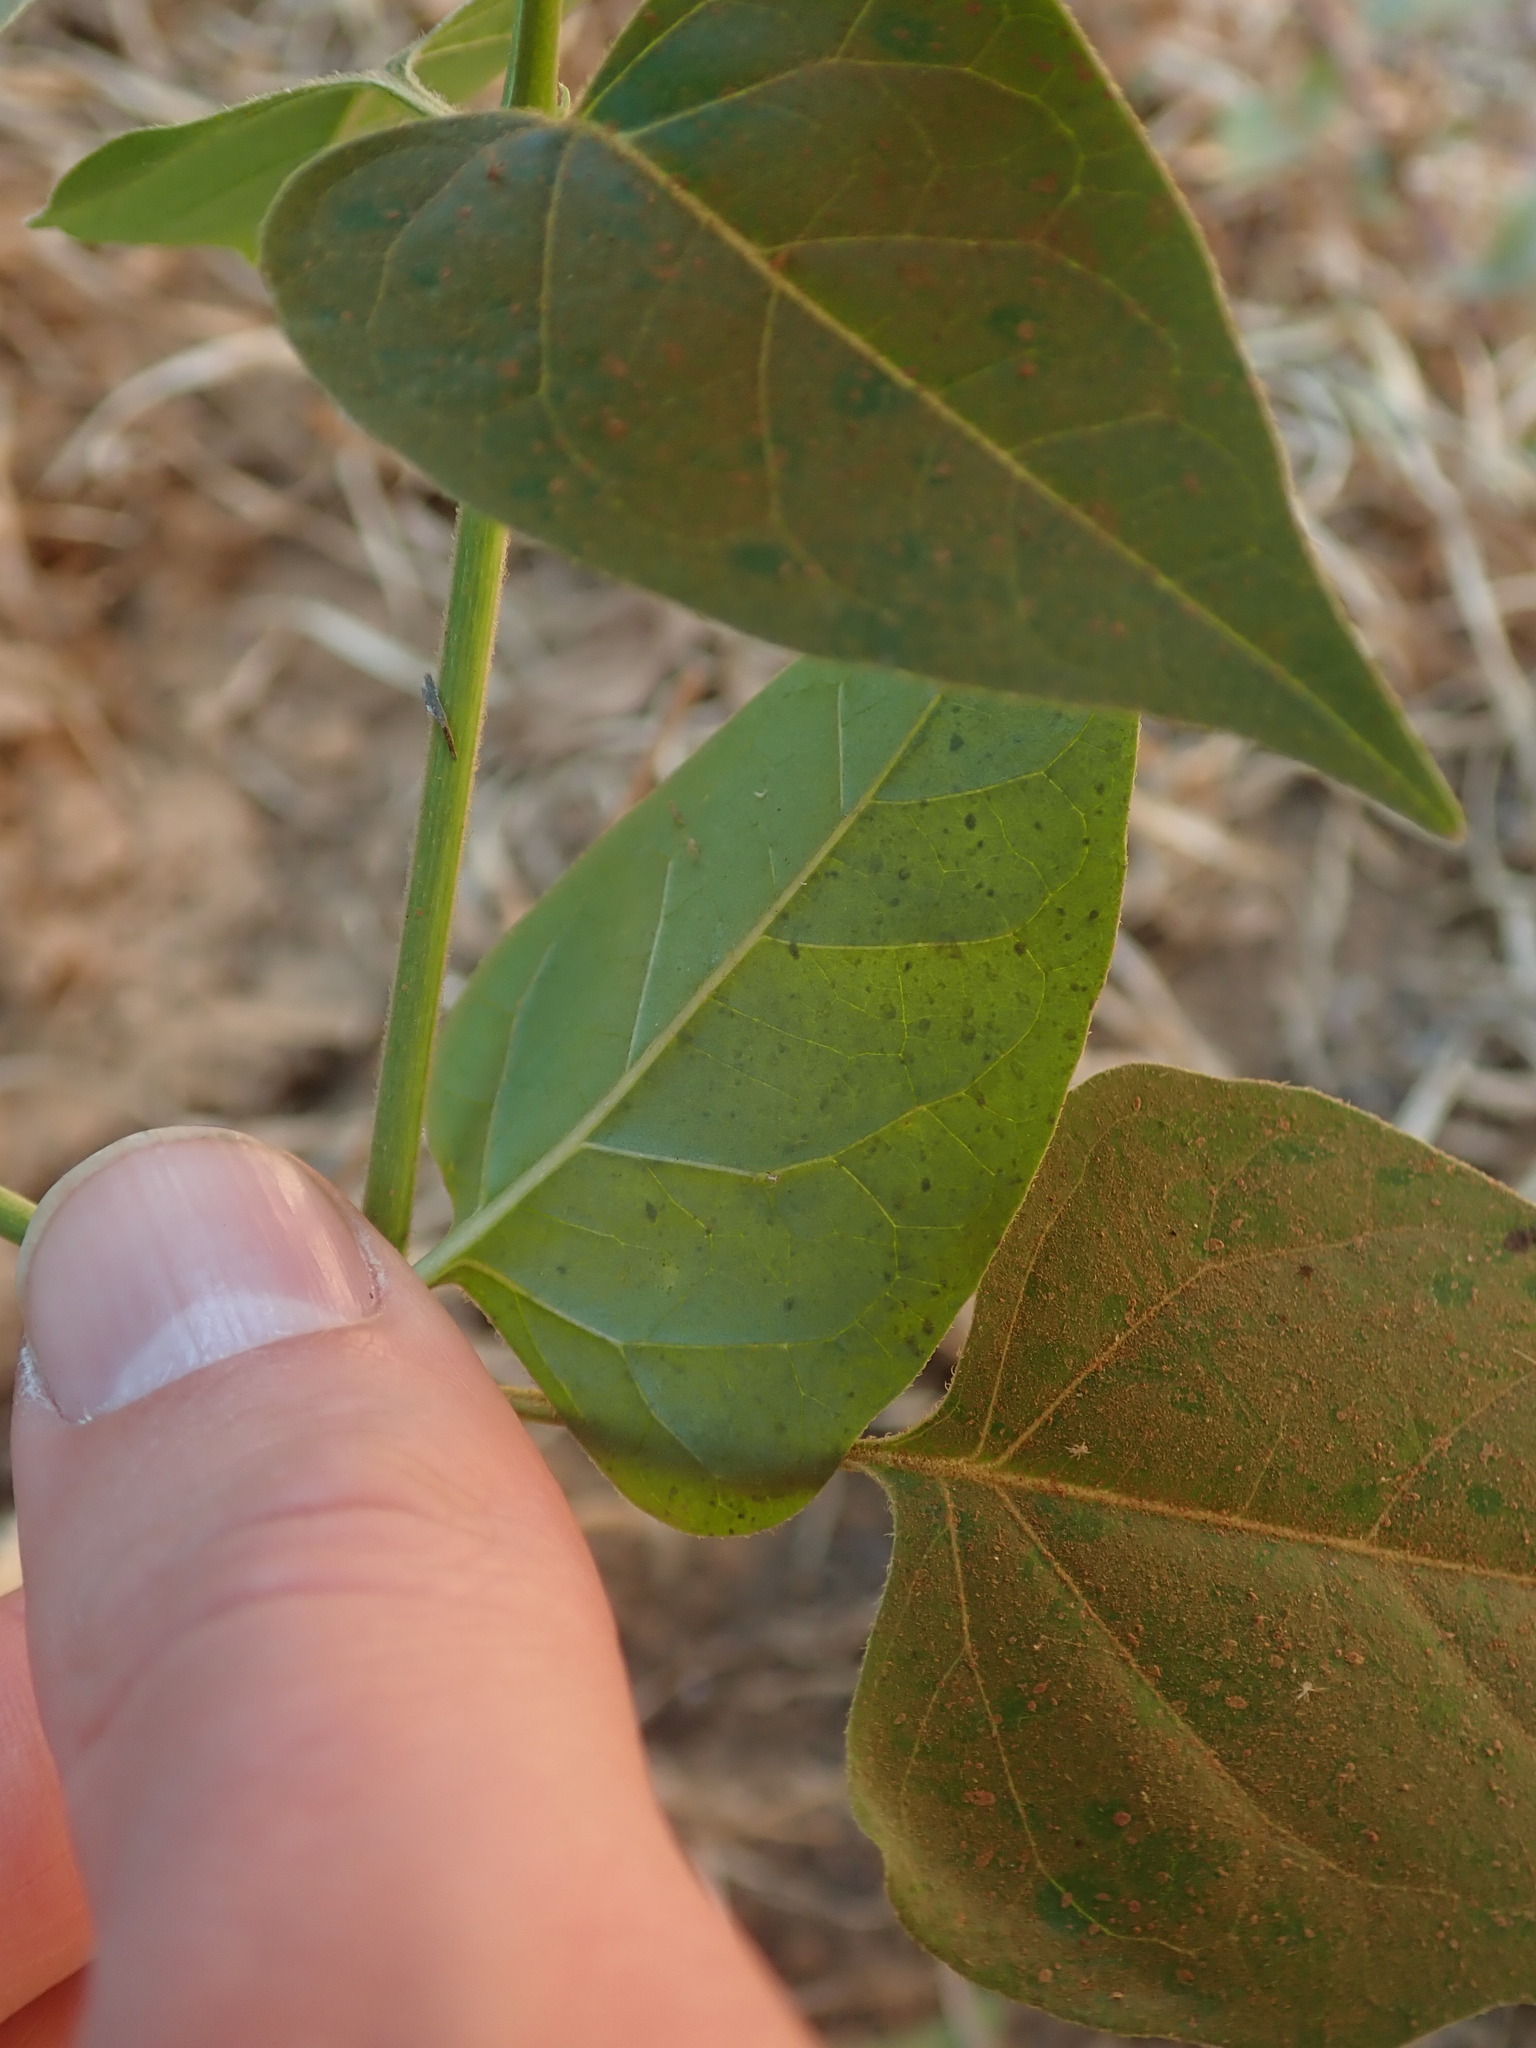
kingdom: Plantae
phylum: Tracheophyta
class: Magnoliopsida
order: Caryophyllales
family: Nyctaginaceae
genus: Mirabilis
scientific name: Mirabilis jalapa
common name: Marvel-of-peru
